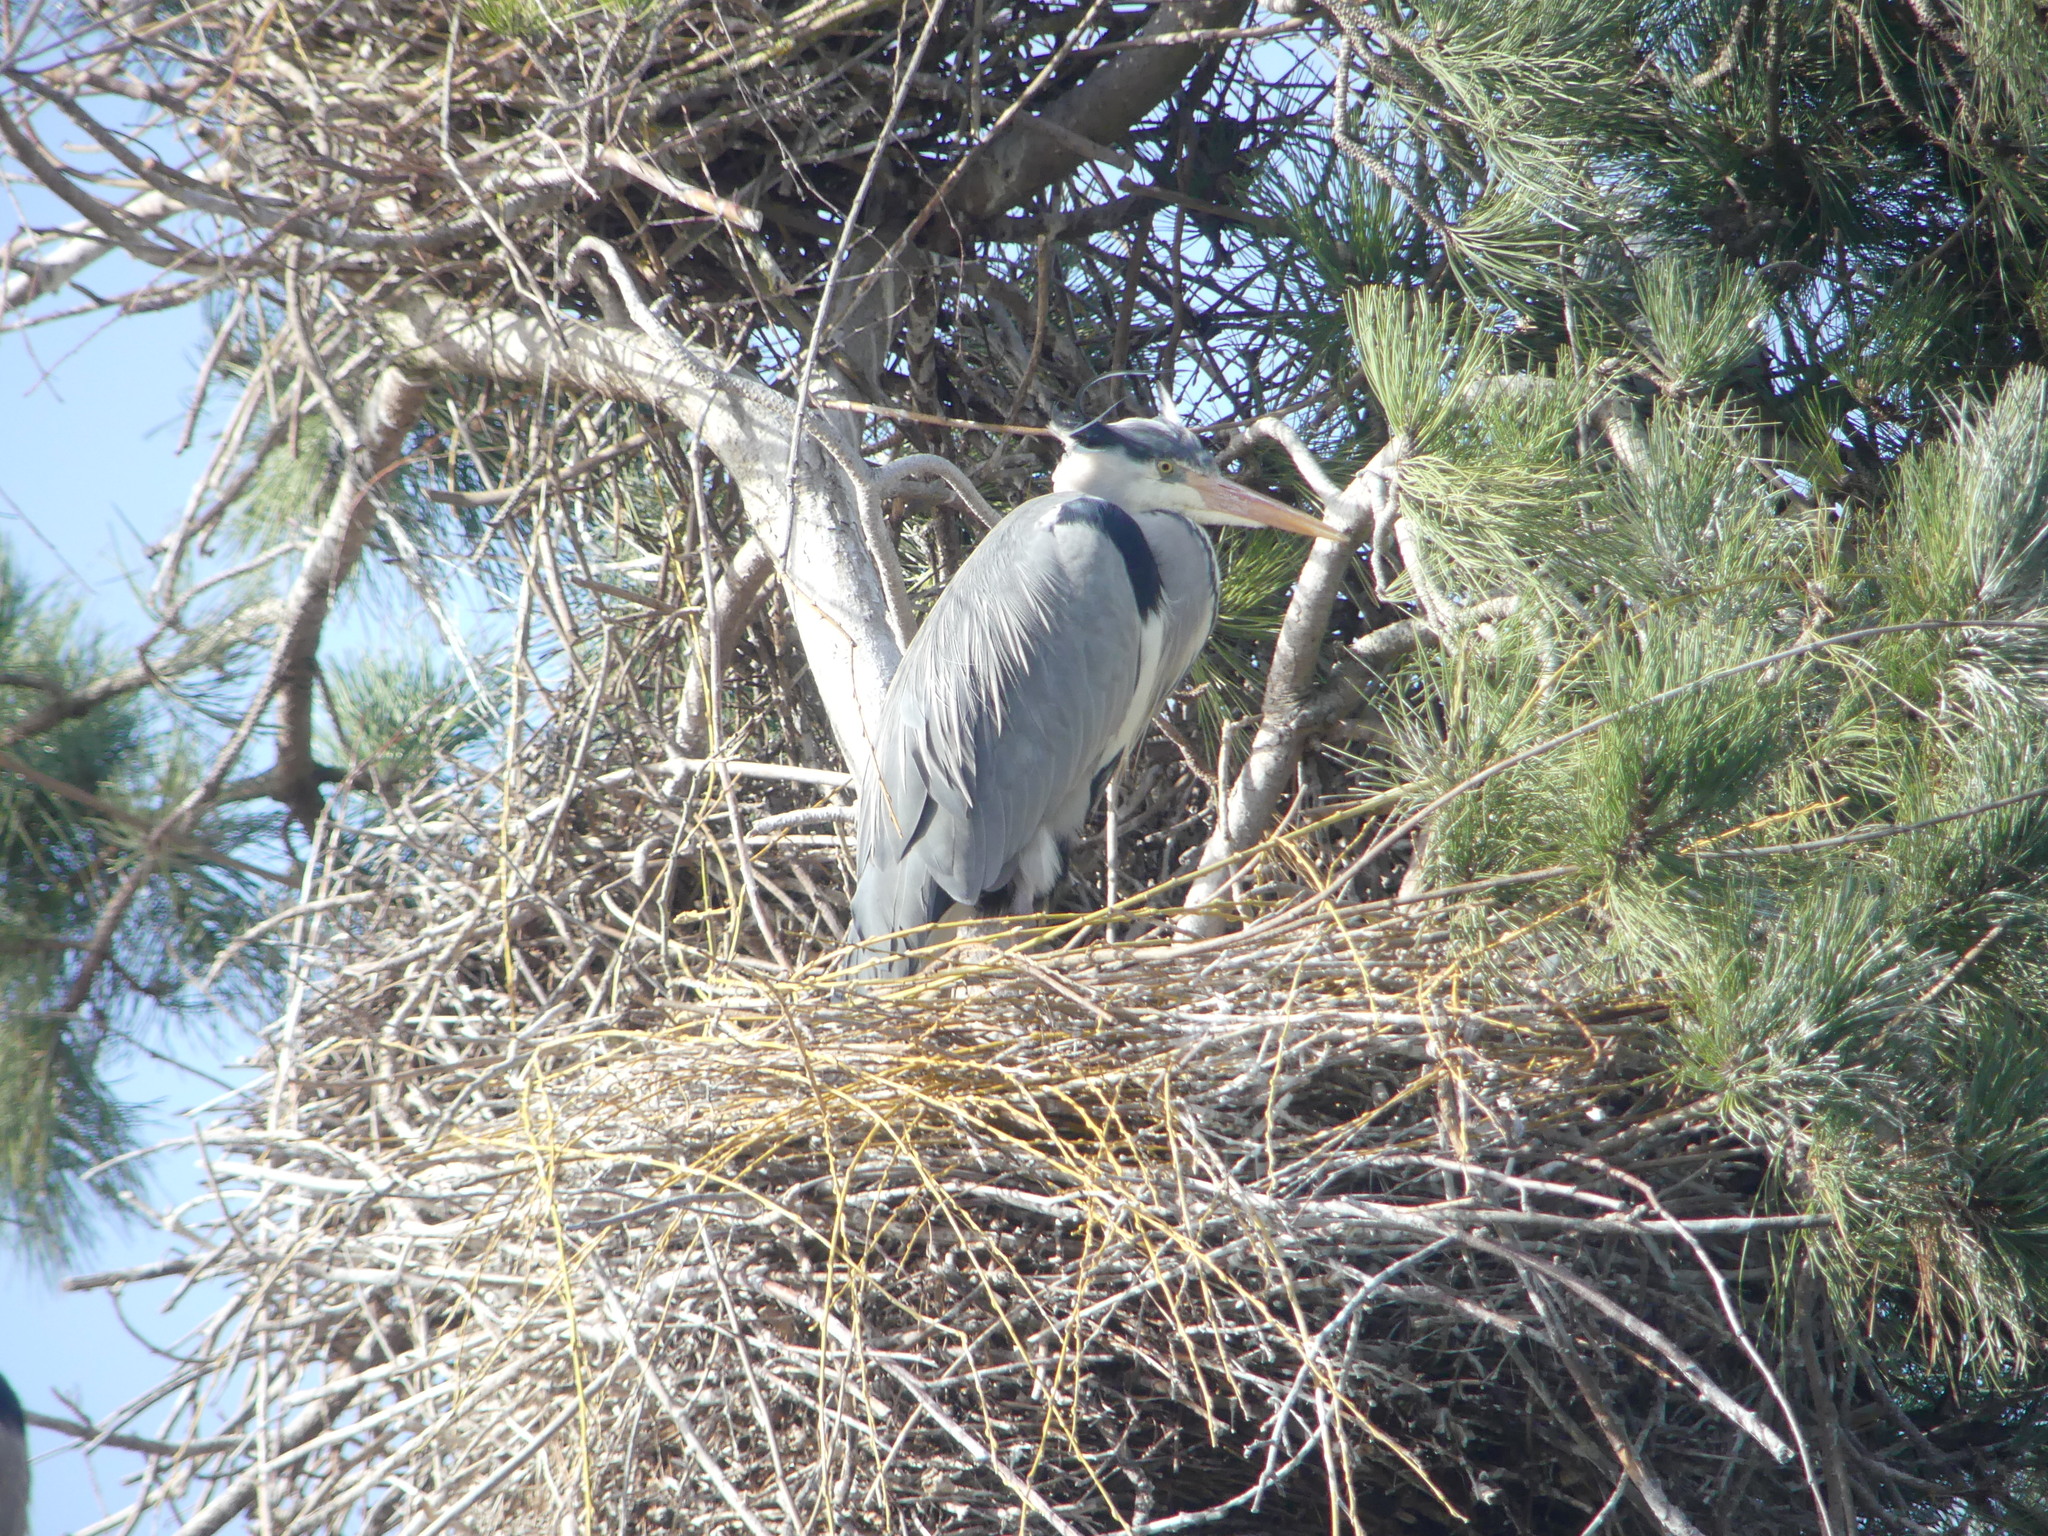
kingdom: Animalia
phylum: Chordata
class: Aves
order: Pelecaniformes
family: Ardeidae
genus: Ardea
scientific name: Ardea cinerea
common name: Grey heron
